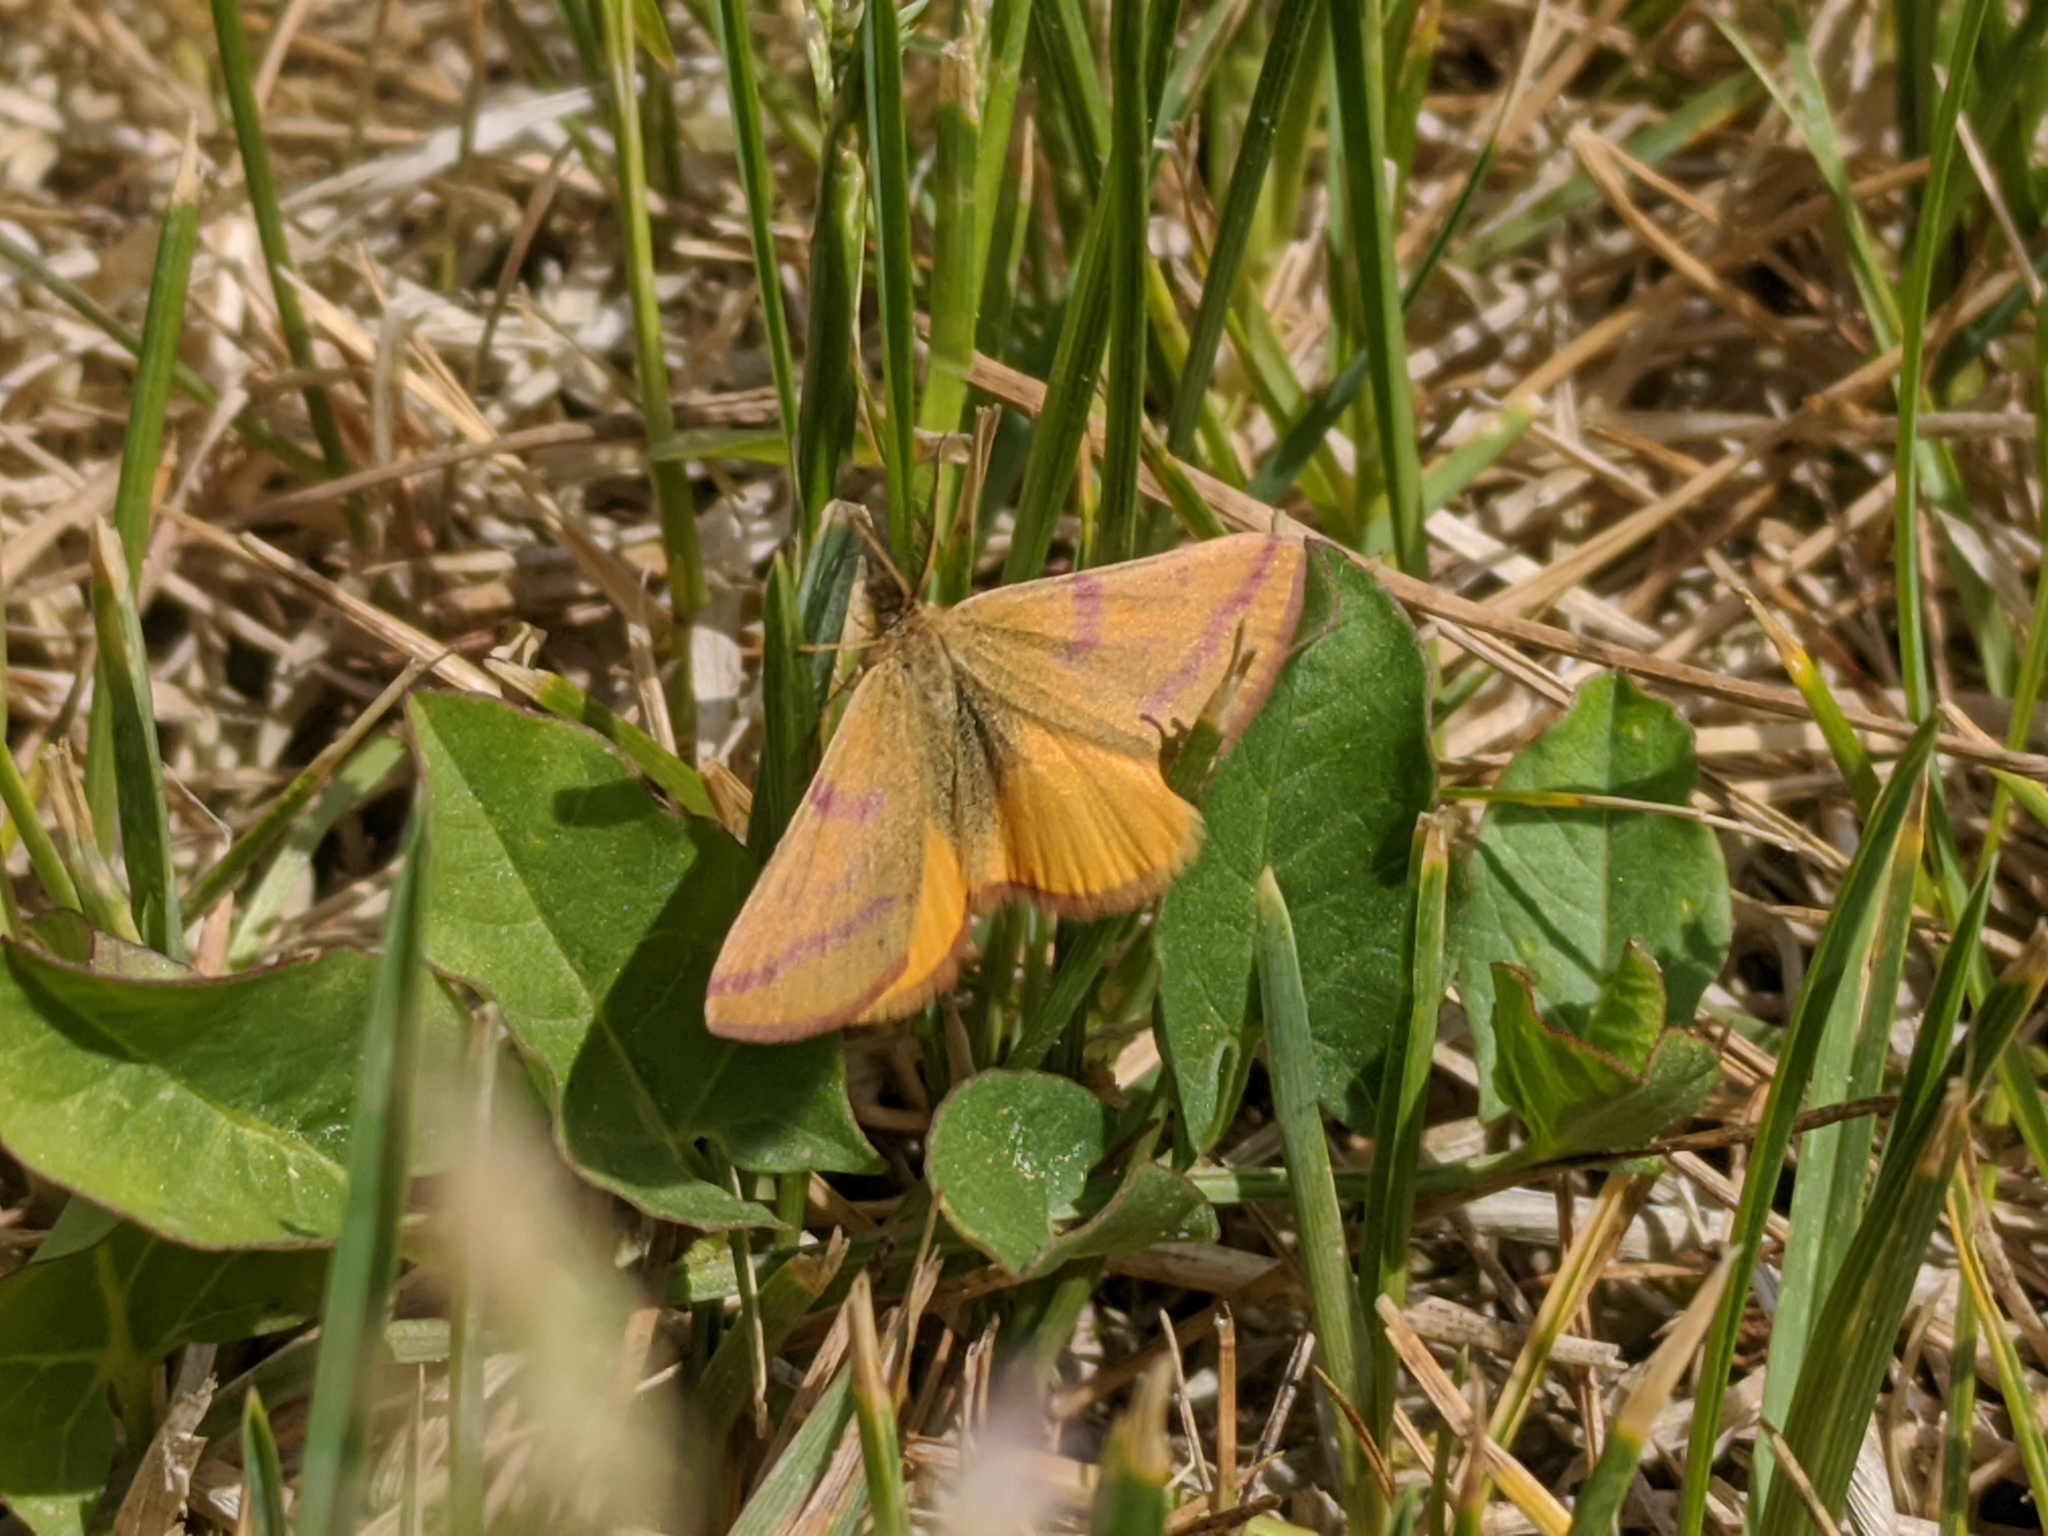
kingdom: Animalia
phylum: Arthropoda
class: Insecta
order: Lepidoptera
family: Geometridae
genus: Lythria
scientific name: Lythria purpuraria
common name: Purple-barred yellow
